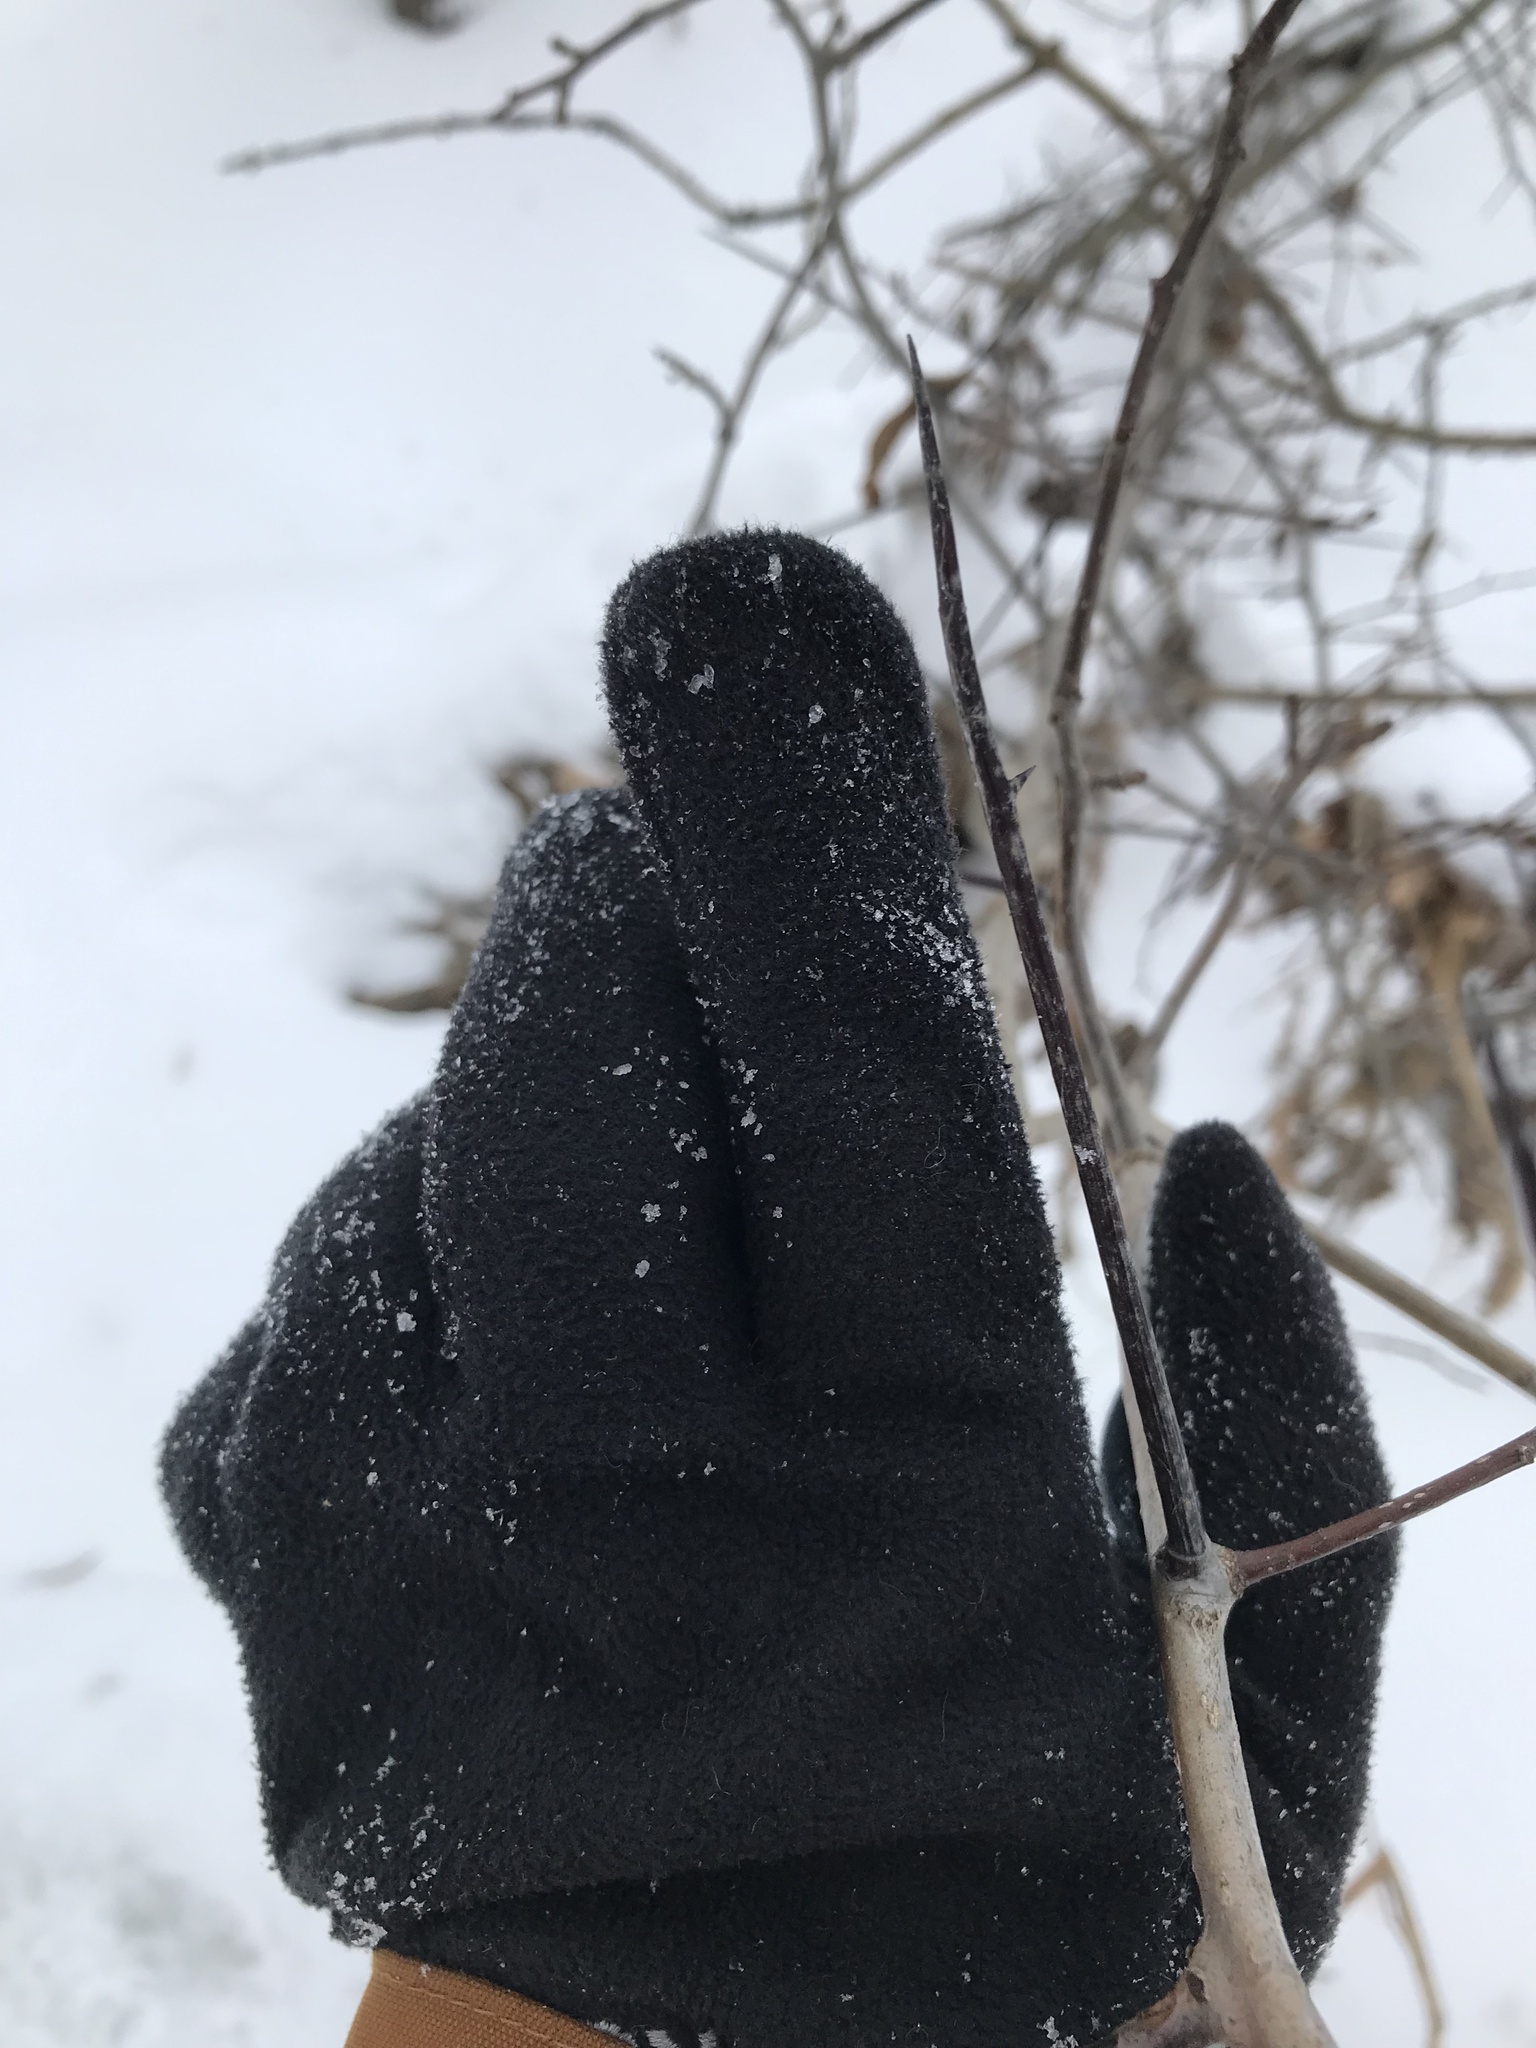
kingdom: Plantae
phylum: Tracheophyta
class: Magnoliopsida
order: Rosales
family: Rosaceae
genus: Crataegus
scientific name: Crataegus
